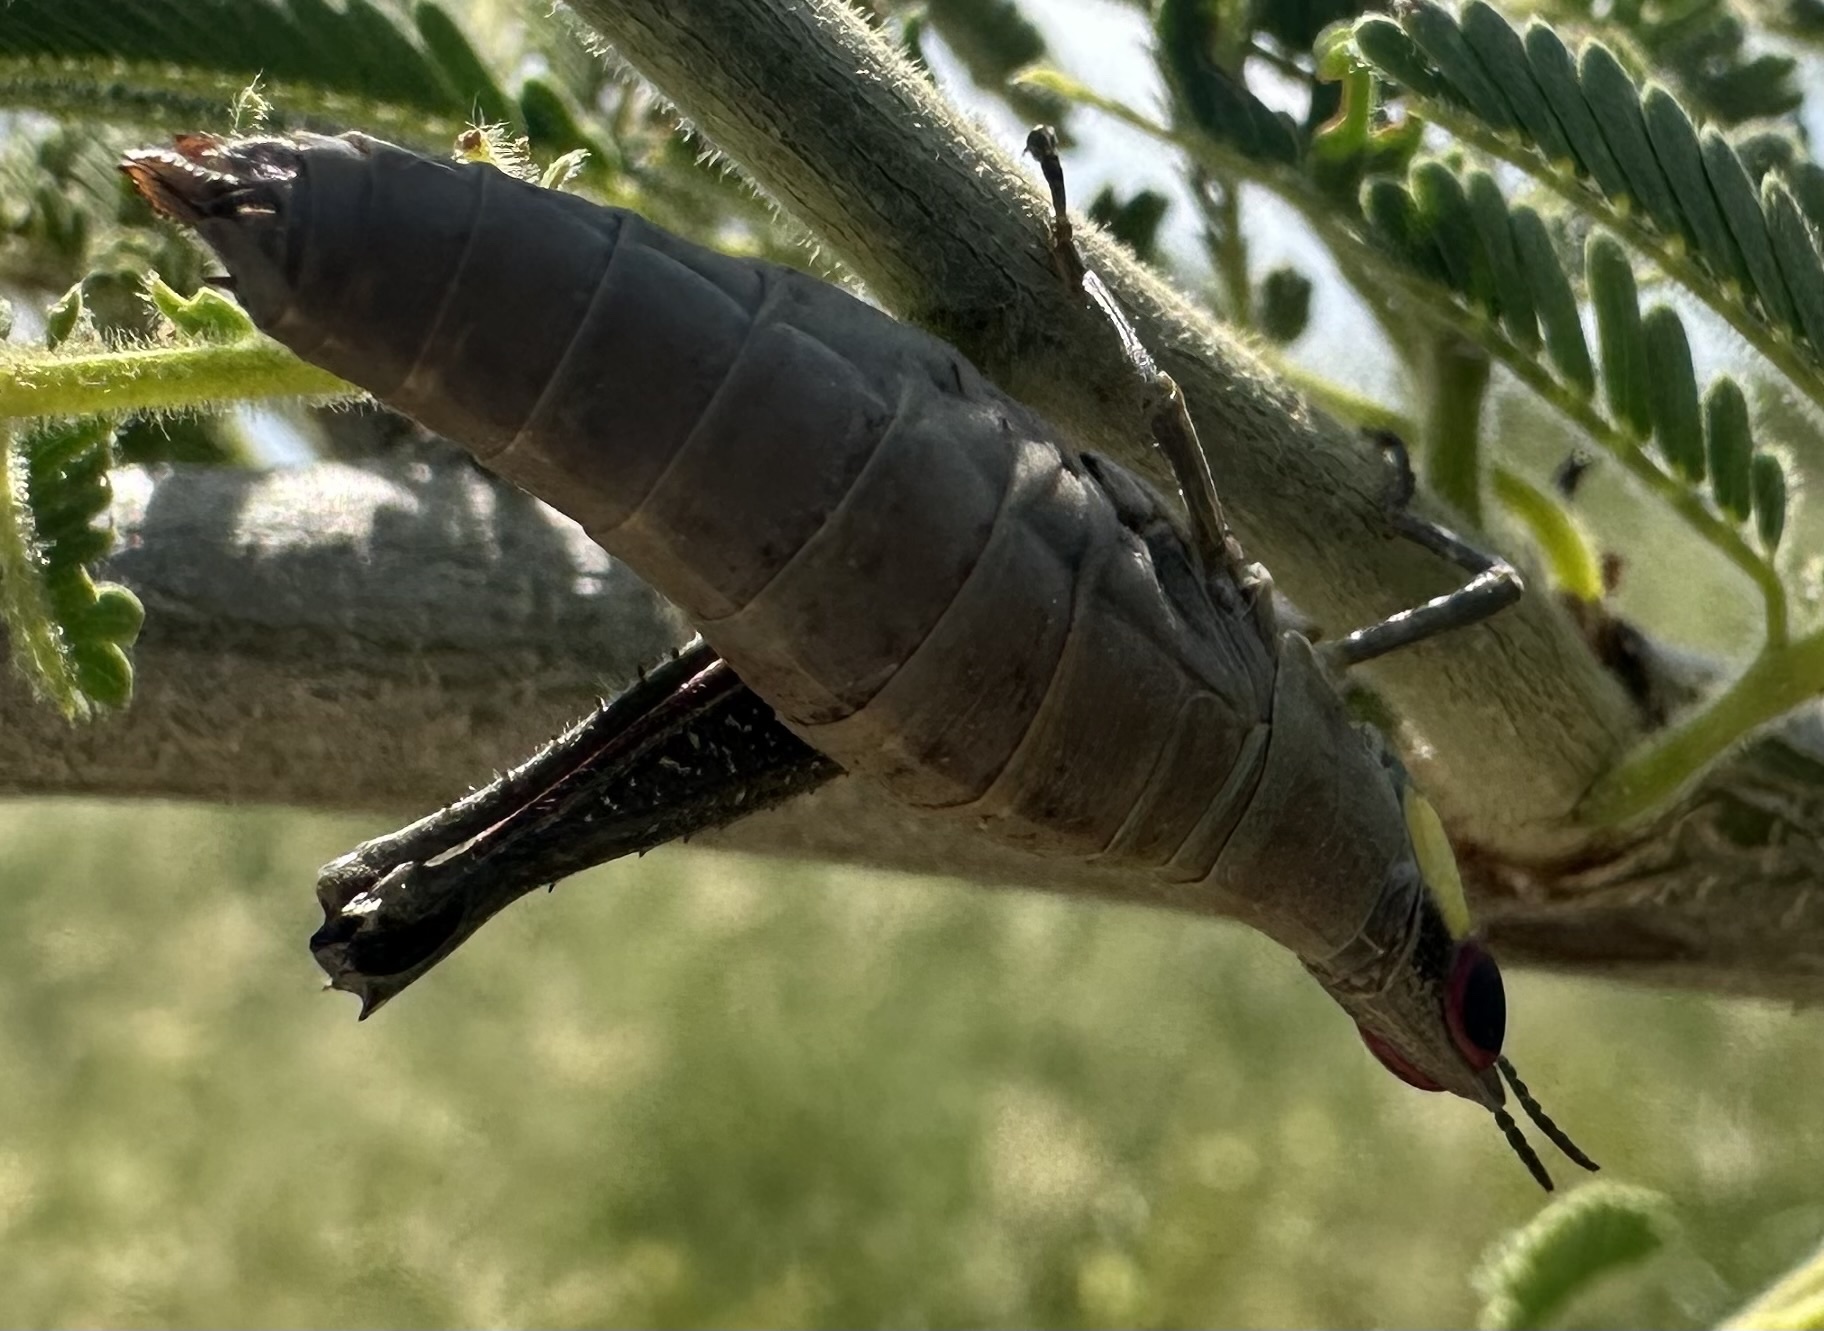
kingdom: Animalia
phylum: Arthropoda
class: Insecta
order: Orthoptera
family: Thericleidae
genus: Pseudothericles
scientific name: Pseudothericles jallae
